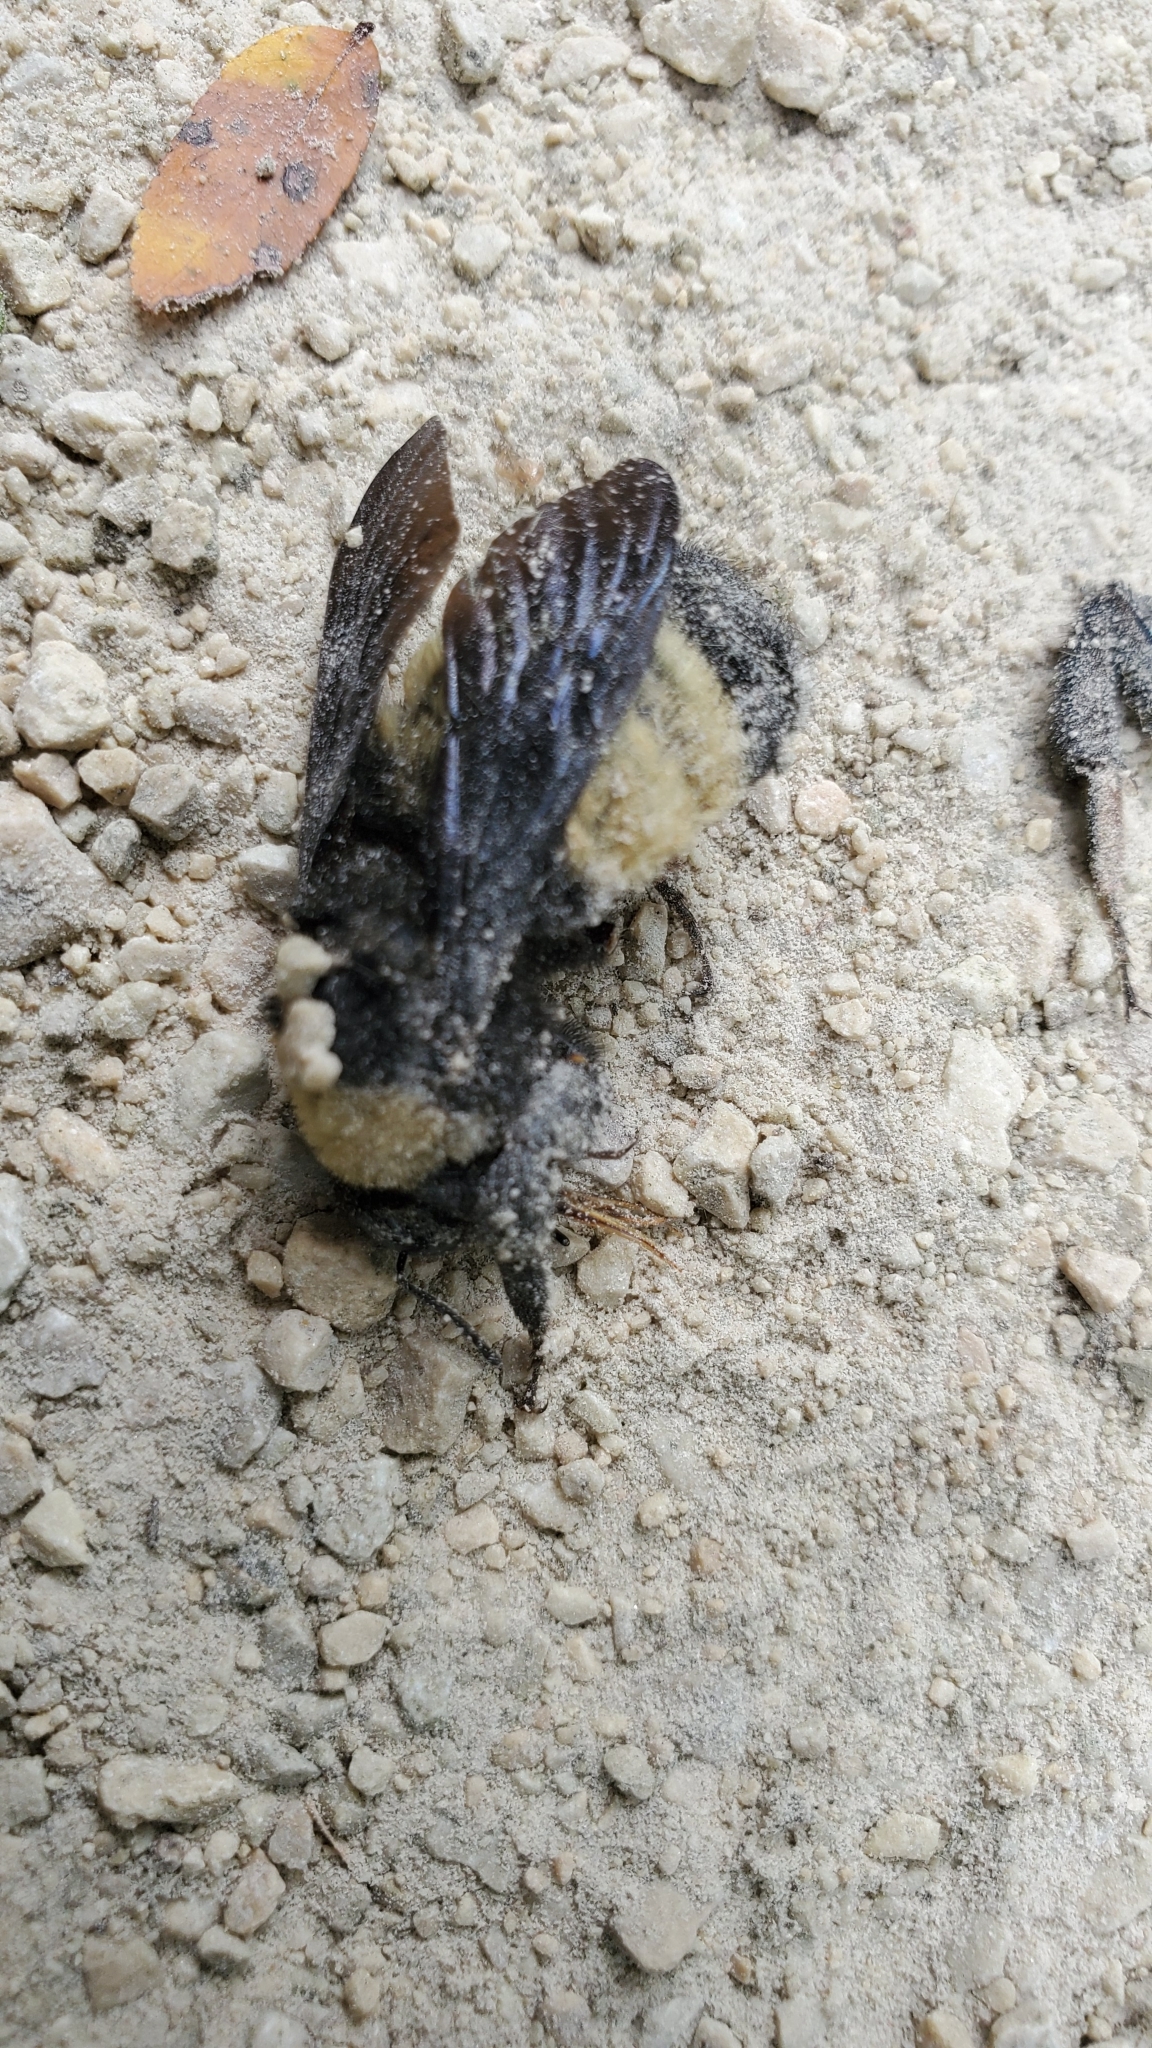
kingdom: Animalia
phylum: Arthropoda
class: Insecta
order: Hymenoptera
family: Apidae
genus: Bombus
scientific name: Bombus pensylvanicus
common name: Bumble bee
